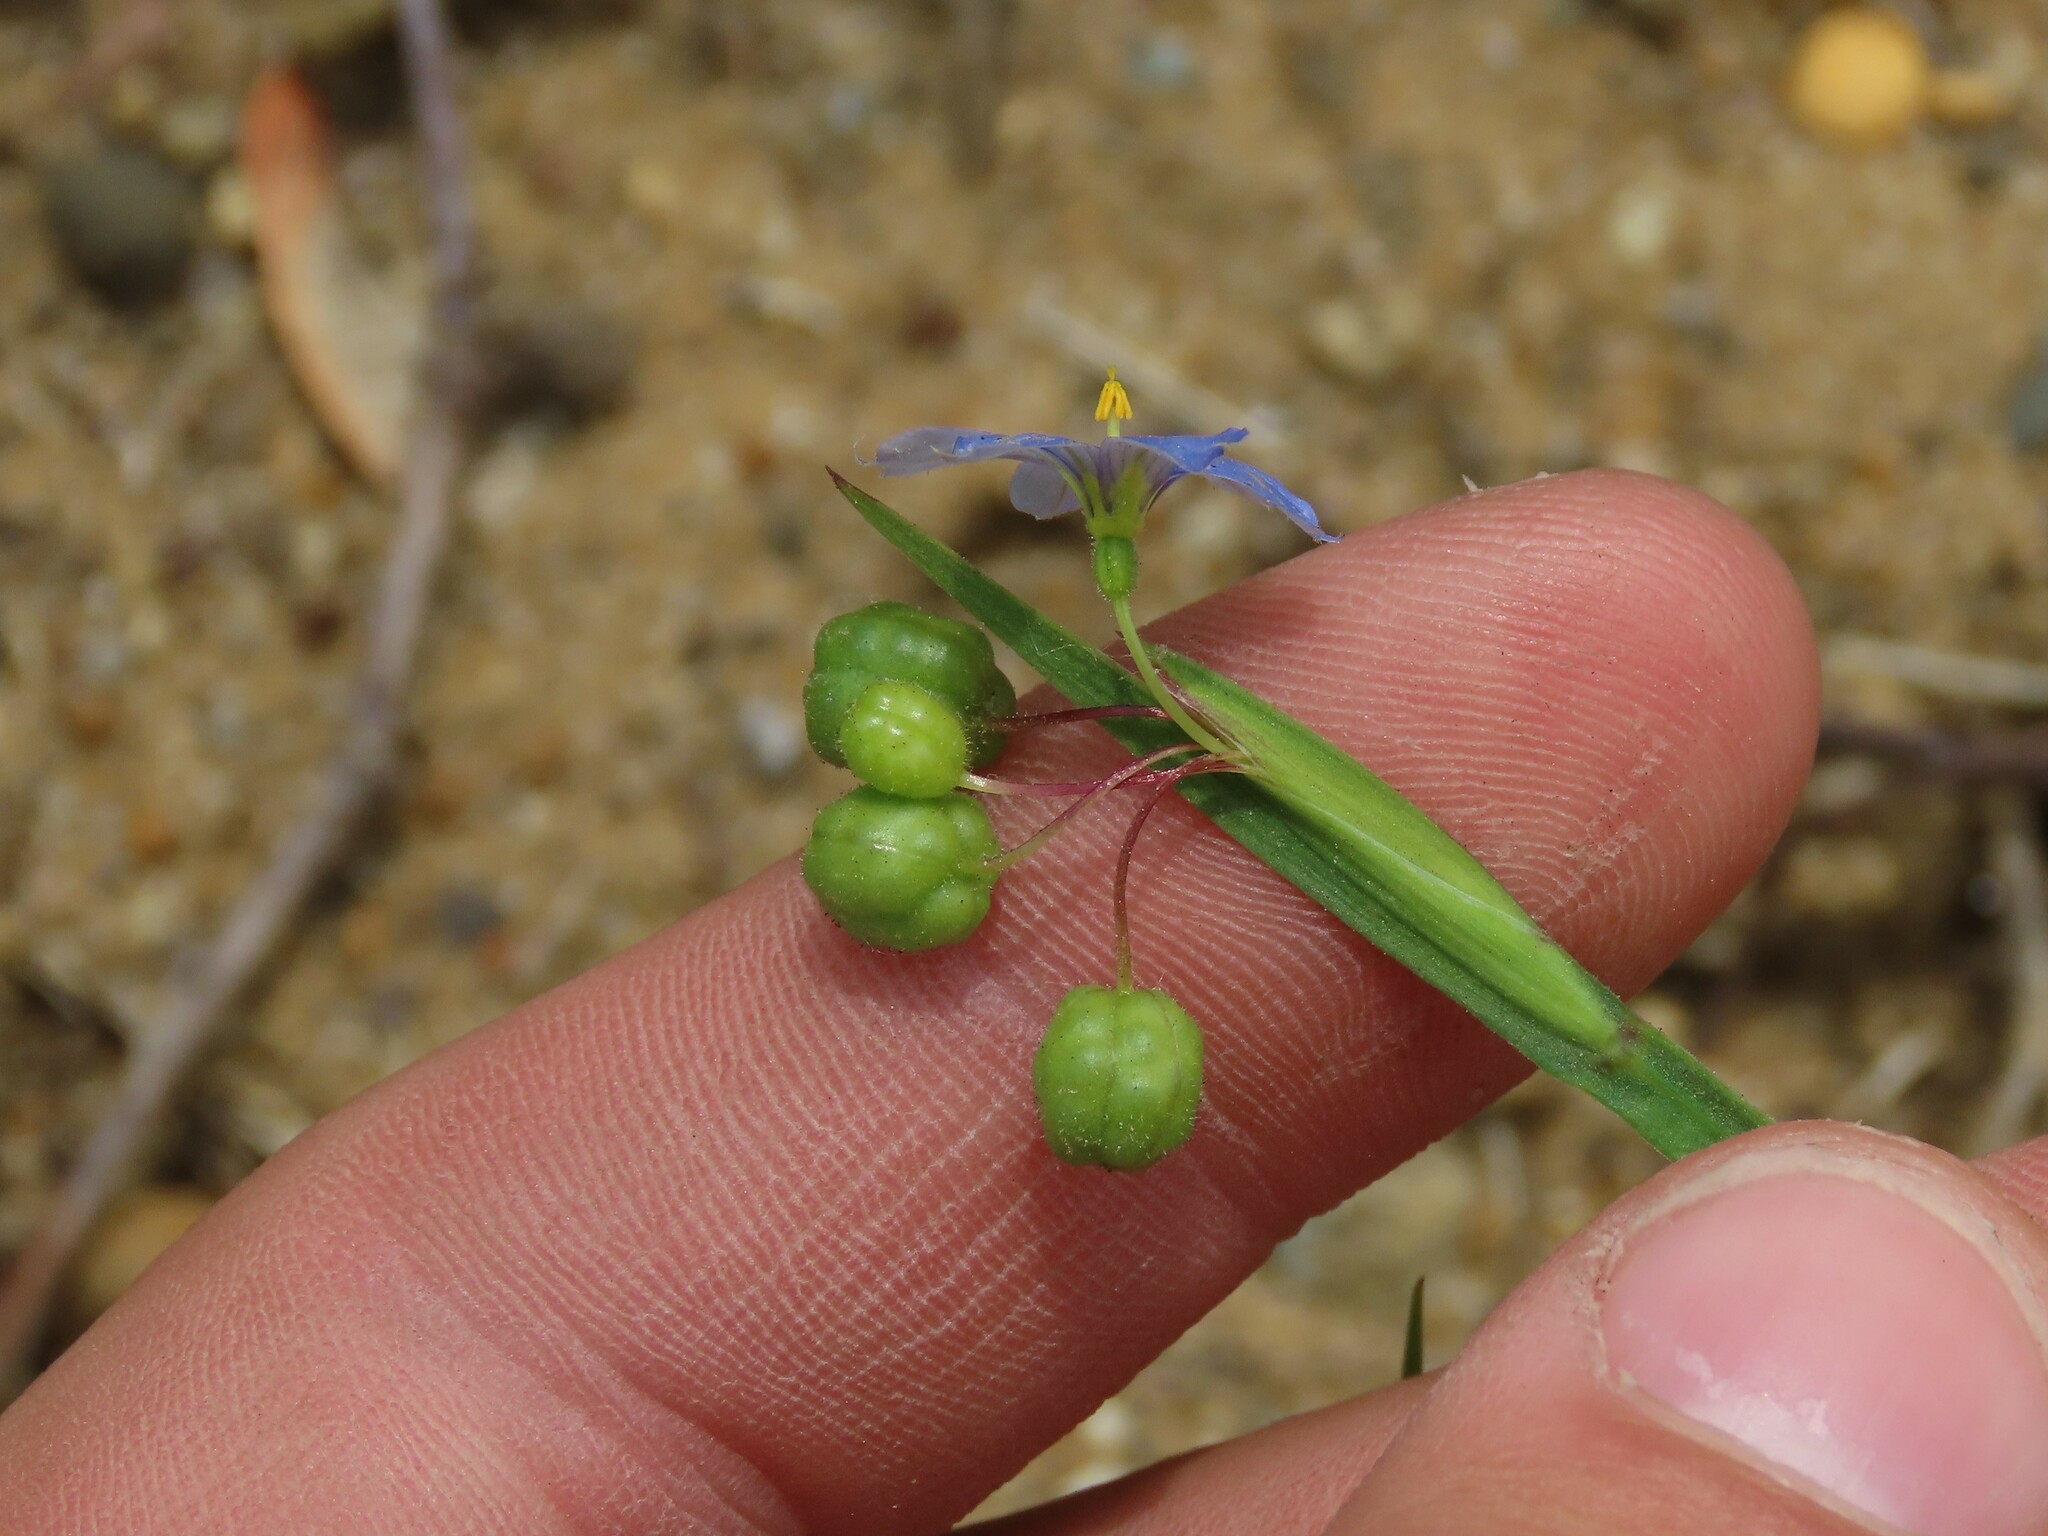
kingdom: Plantae
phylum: Tracheophyta
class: Liliopsida
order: Asparagales
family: Iridaceae
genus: Sisyrinchium
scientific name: Sisyrinchium angustifolium
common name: Narrow-leaf blue-eyed-grass
